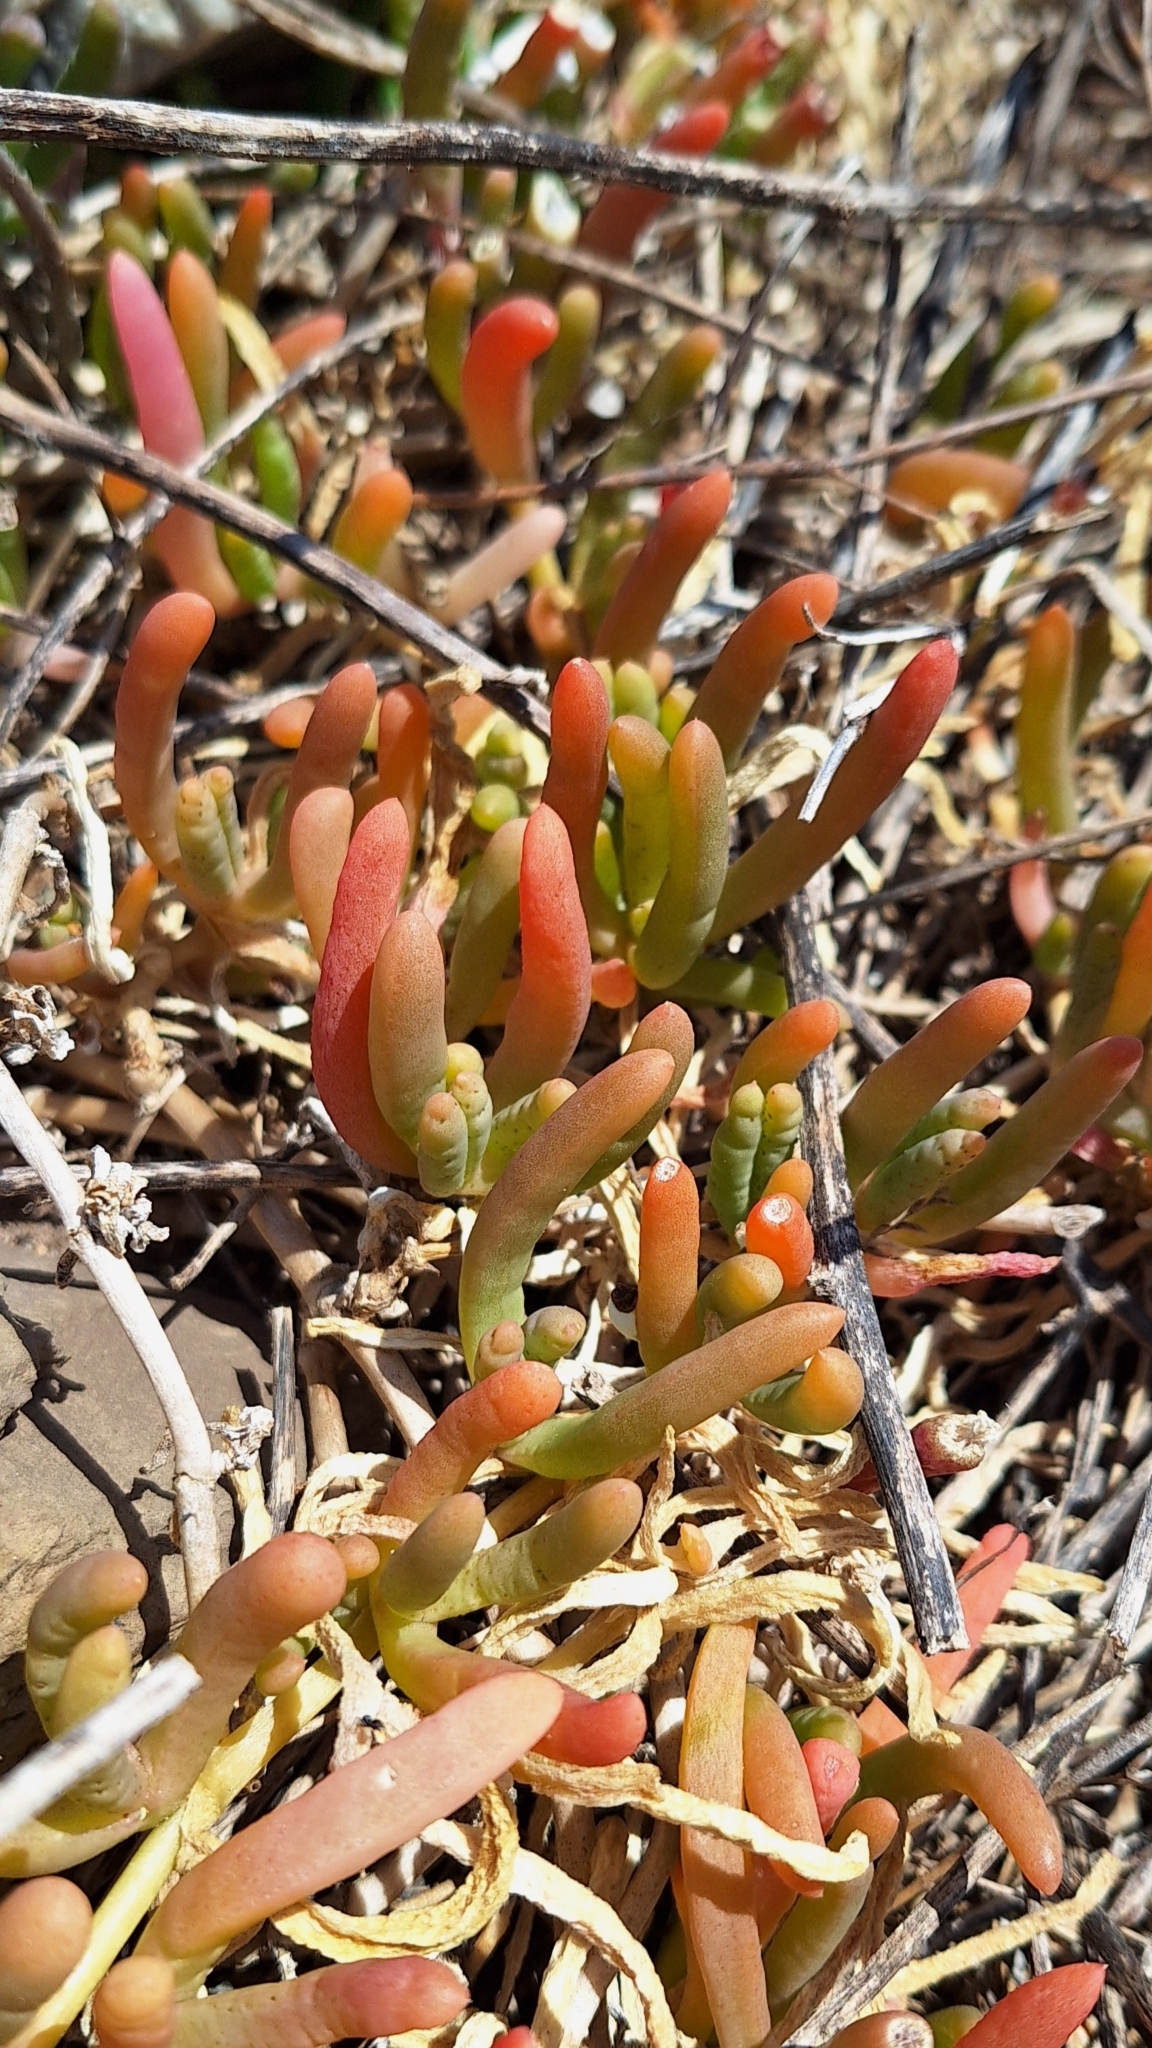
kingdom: Plantae
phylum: Tracheophyta
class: Magnoliopsida
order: Caryophyllales
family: Aizoaceae
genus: Disphyma
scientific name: Disphyma clavellatum
